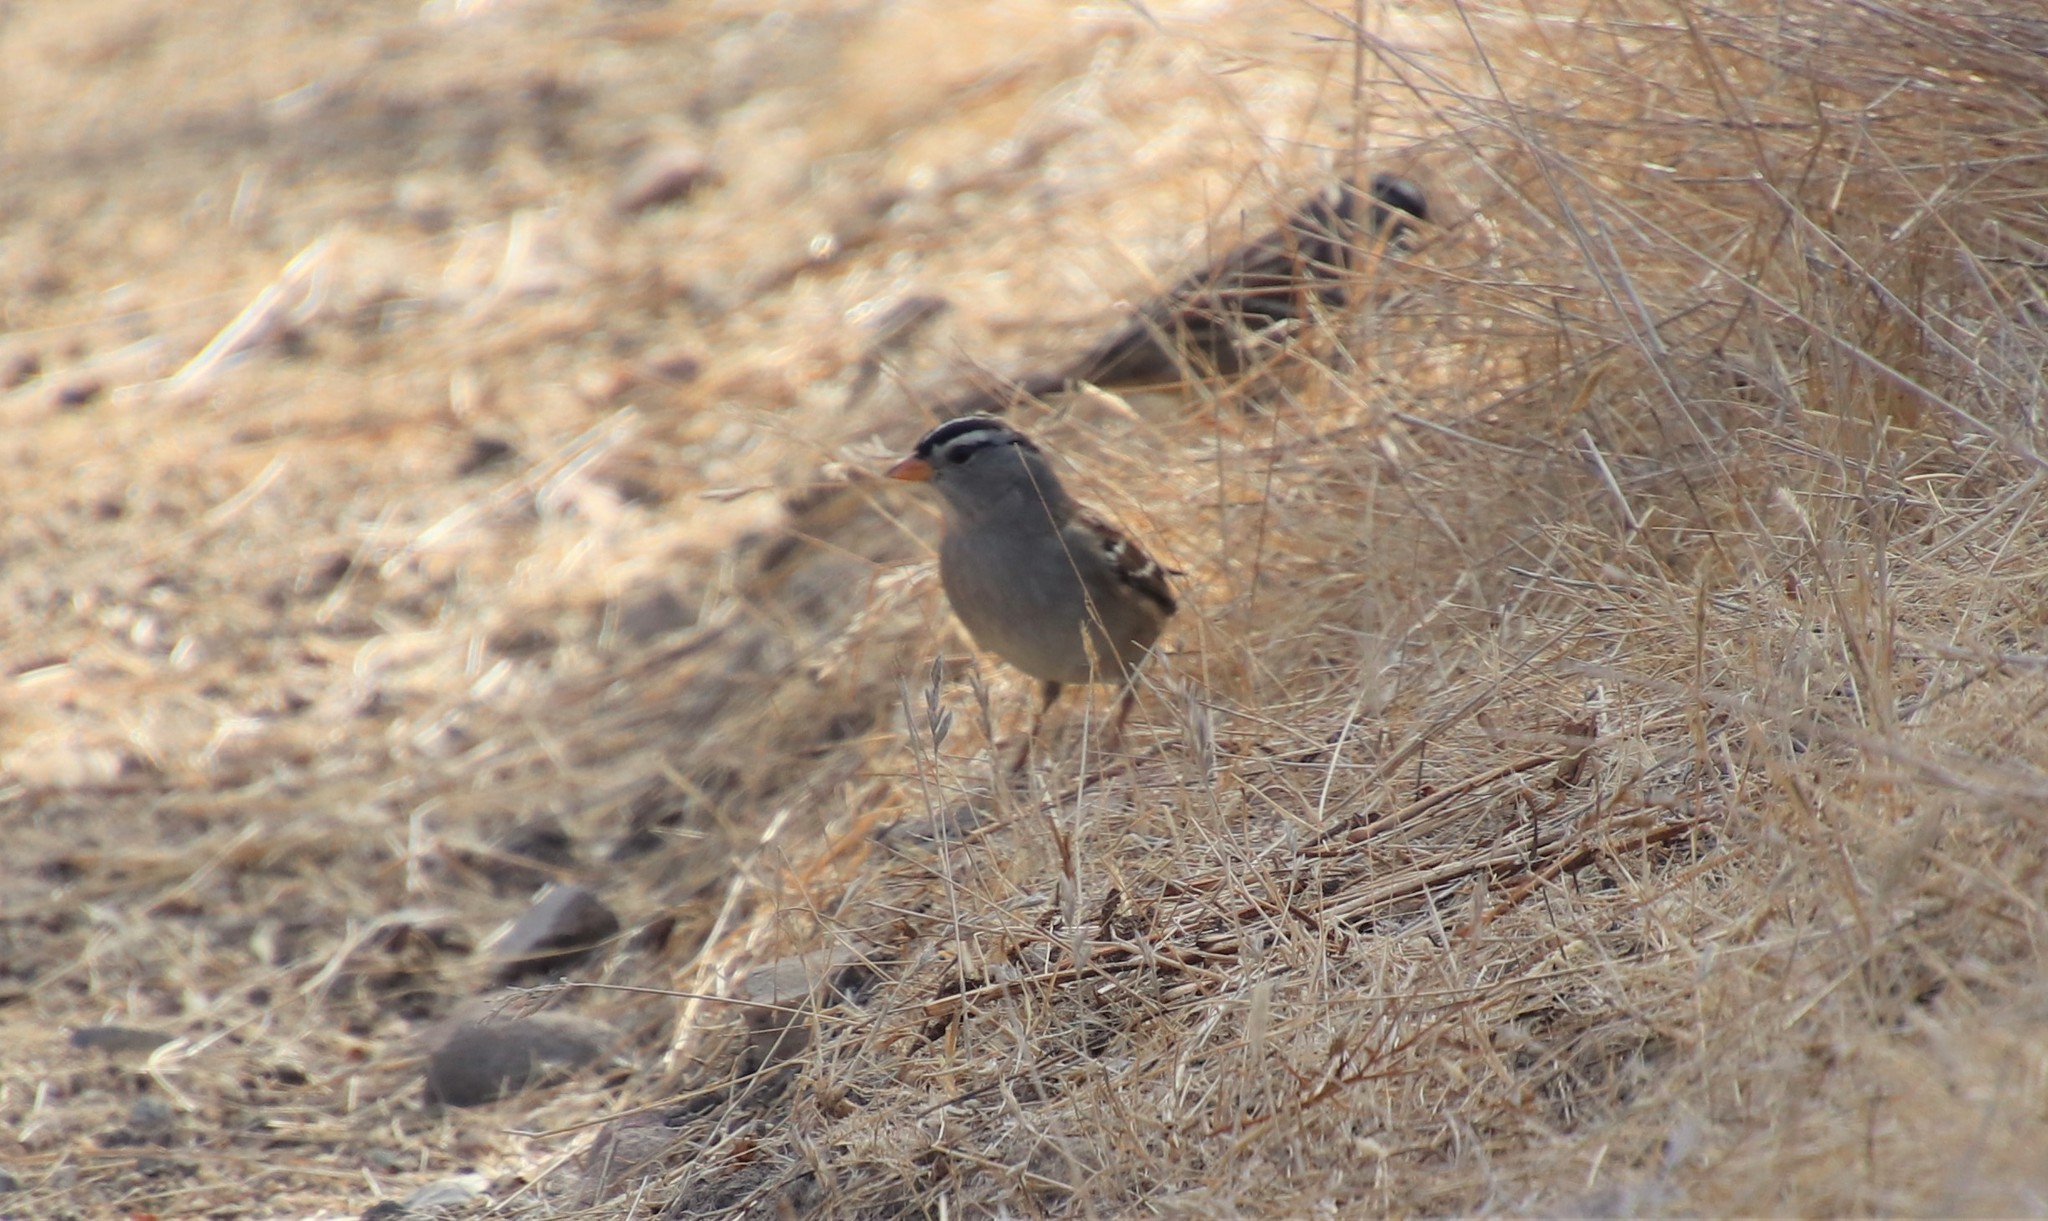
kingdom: Animalia
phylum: Chordata
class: Aves
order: Passeriformes
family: Passerellidae
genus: Zonotrichia
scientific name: Zonotrichia leucophrys
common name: White-crowned sparrow
